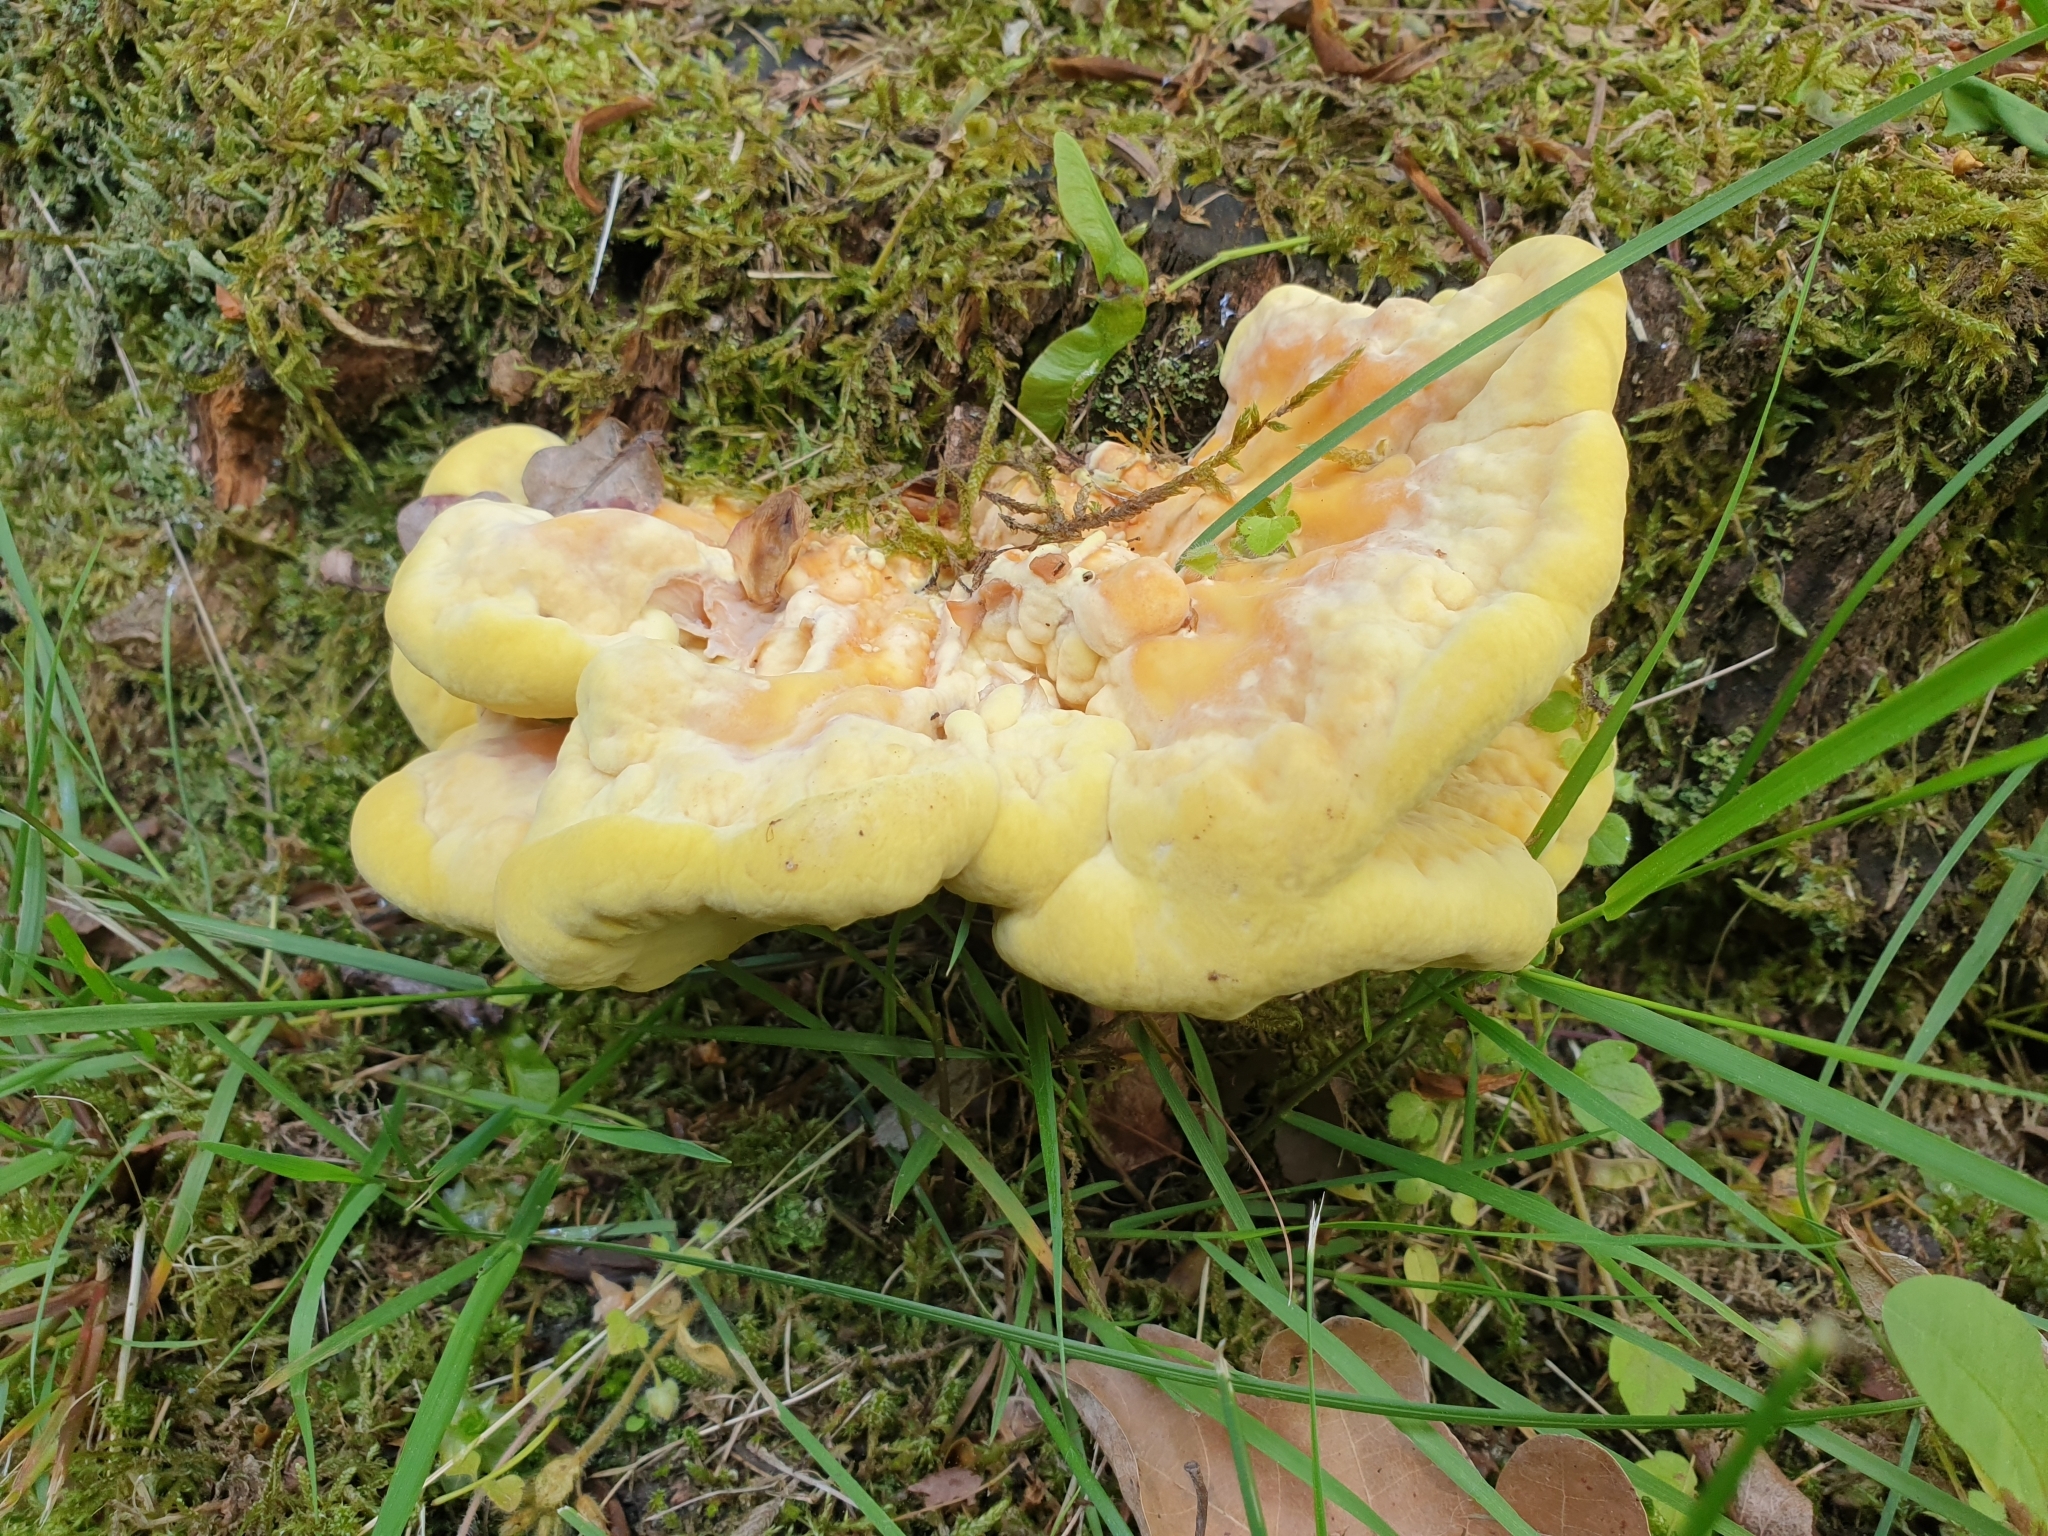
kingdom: Fungi
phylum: Basidiomycota
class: Agaricomycetes
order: Polyporales
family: Laetiporaceae
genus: Laetiporus
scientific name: Laetiporus sulphureus
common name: Chicken of the woods
